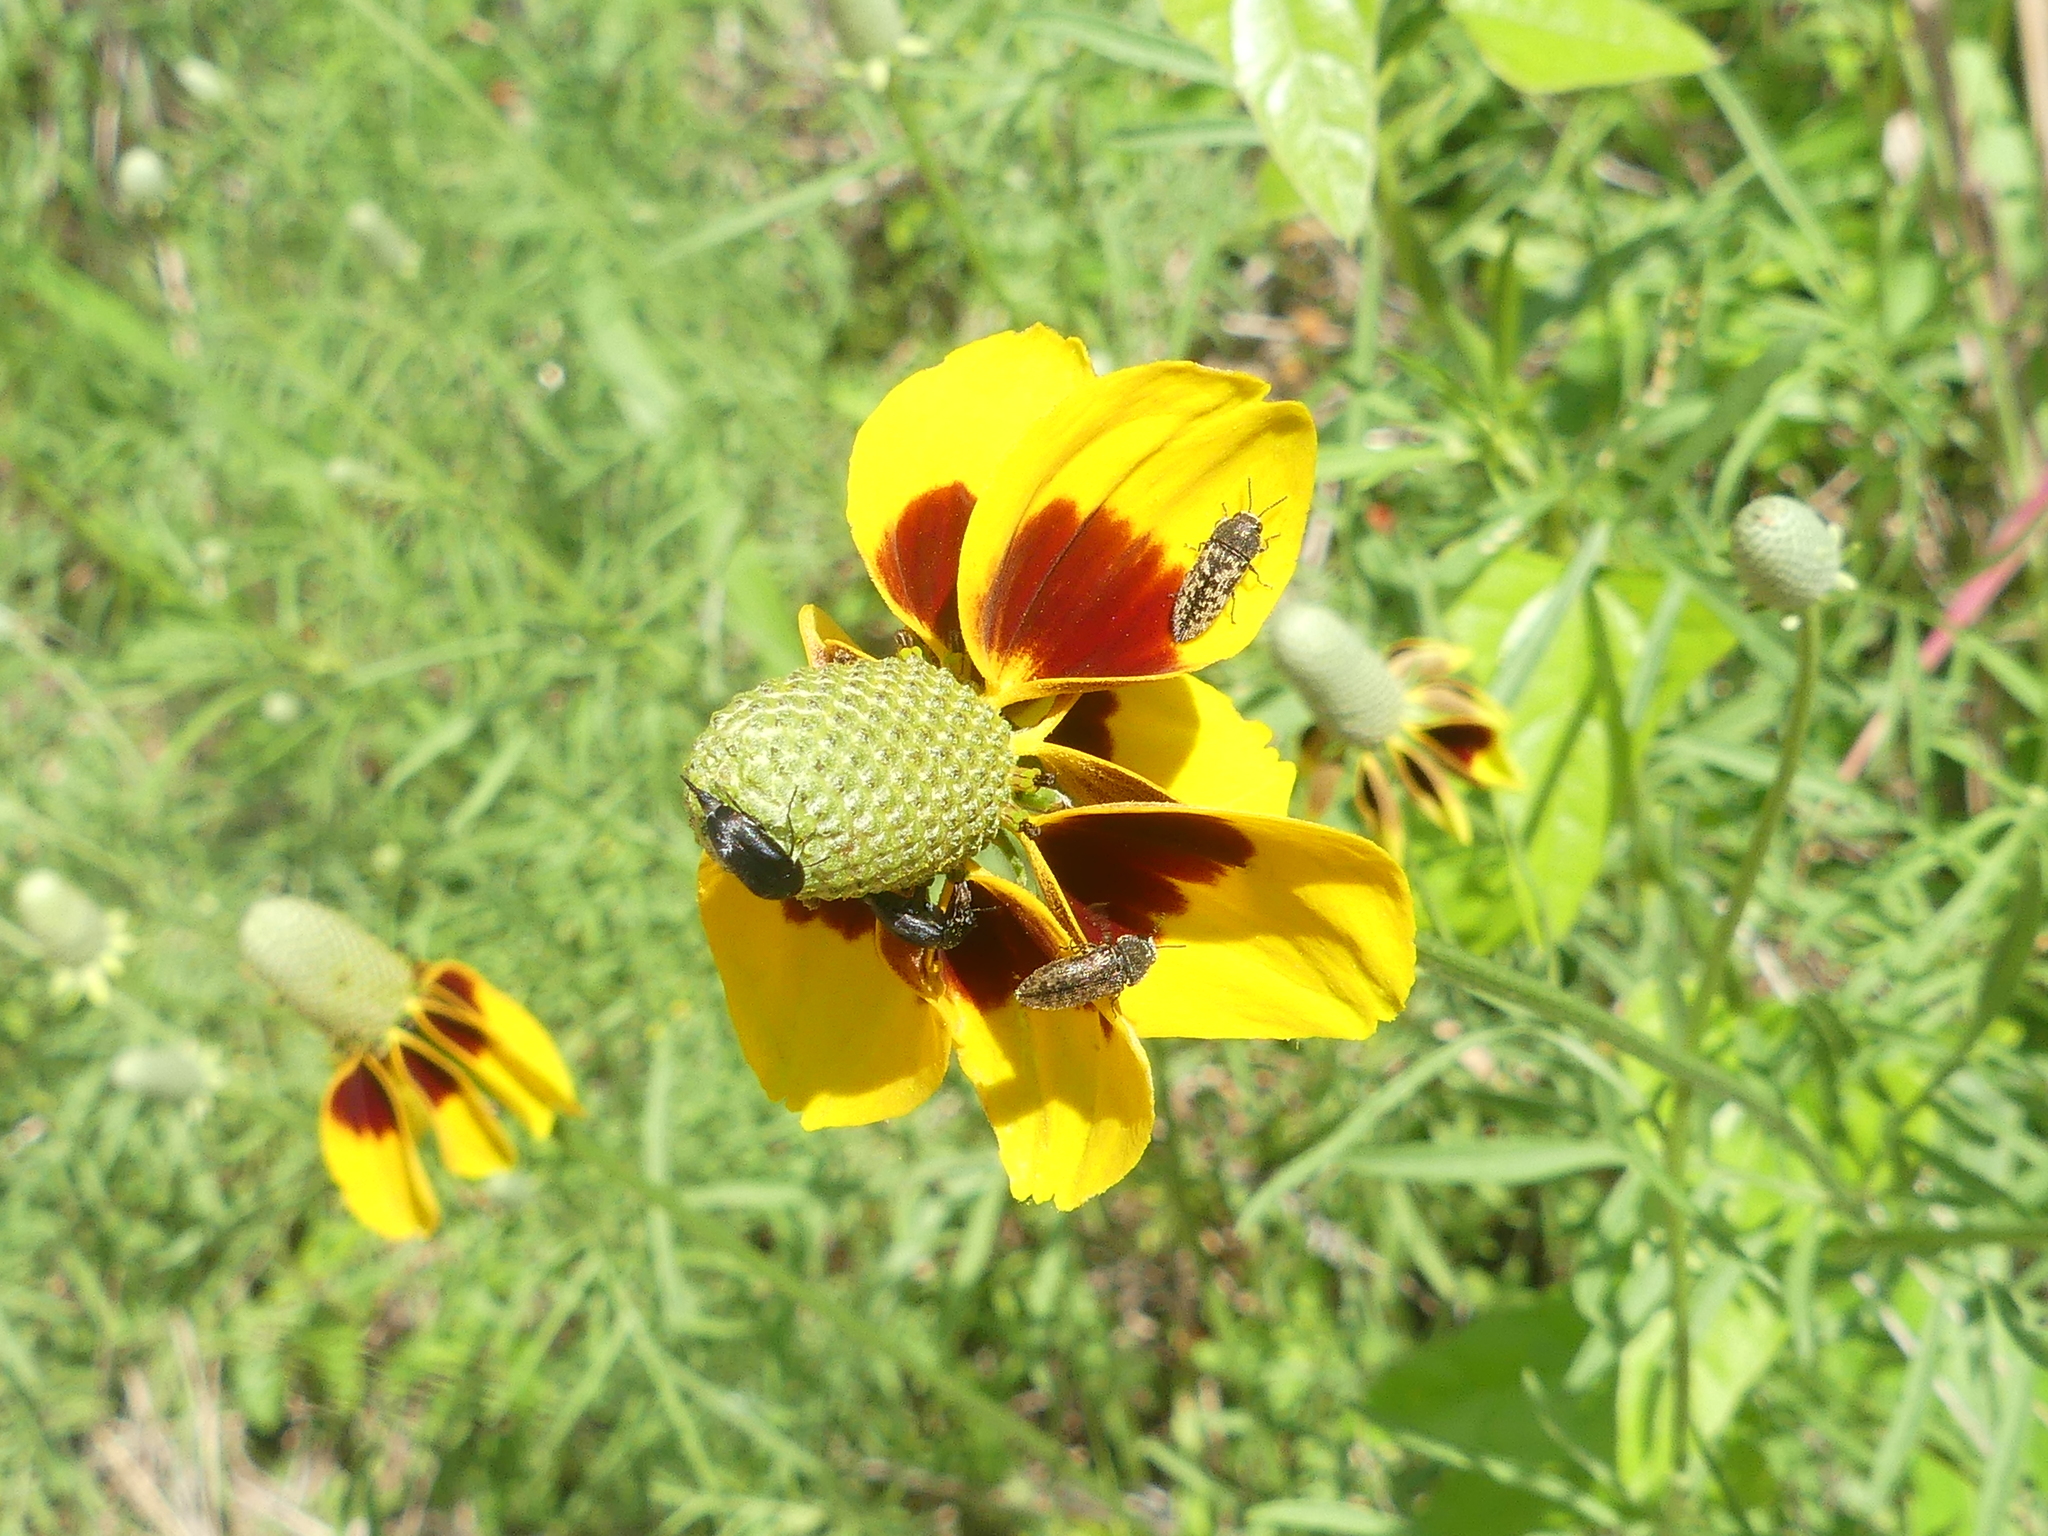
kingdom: Plantae
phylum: Tracheophyta
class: Magnoliopsida
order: Asterales
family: Asteraceae
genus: Ratibida
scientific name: Ratibida columnifera
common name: Prairie coneflower
